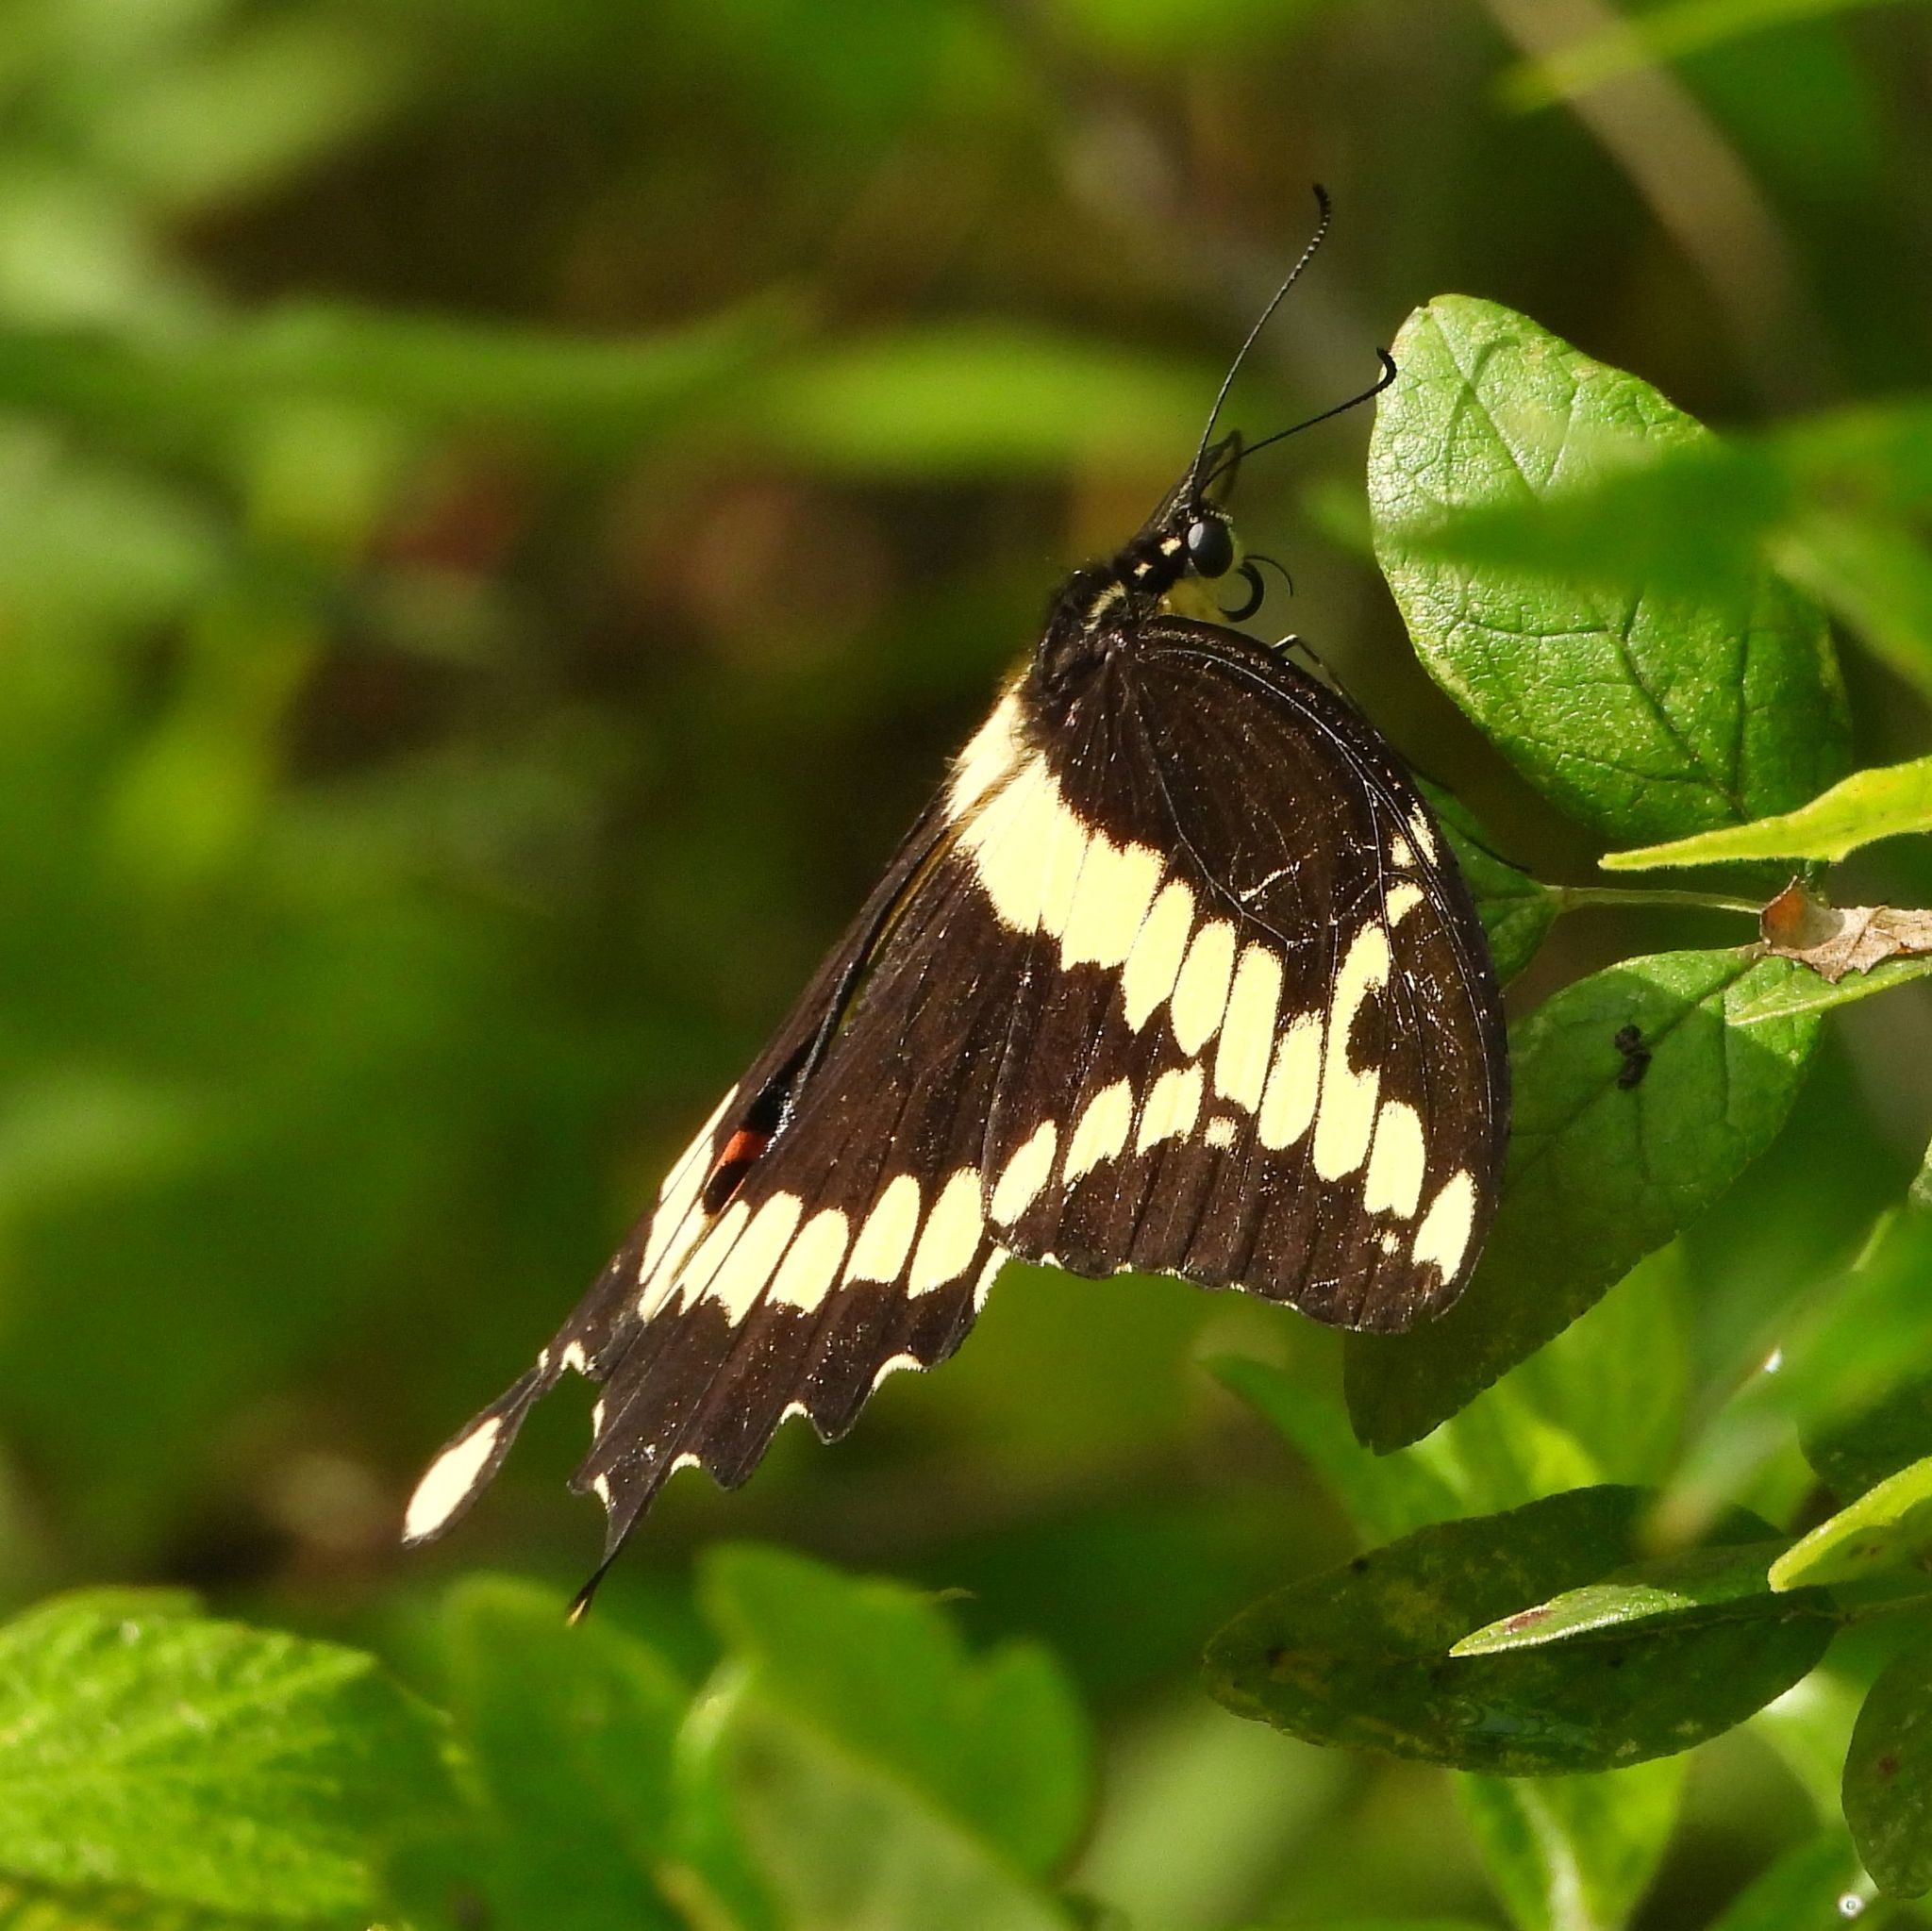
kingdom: Animalia
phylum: Arthropoda
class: Insecta
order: Lepidoptera
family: Papilionidae
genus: Papilio
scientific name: Papilio cresphontes
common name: Giant swallowtail
